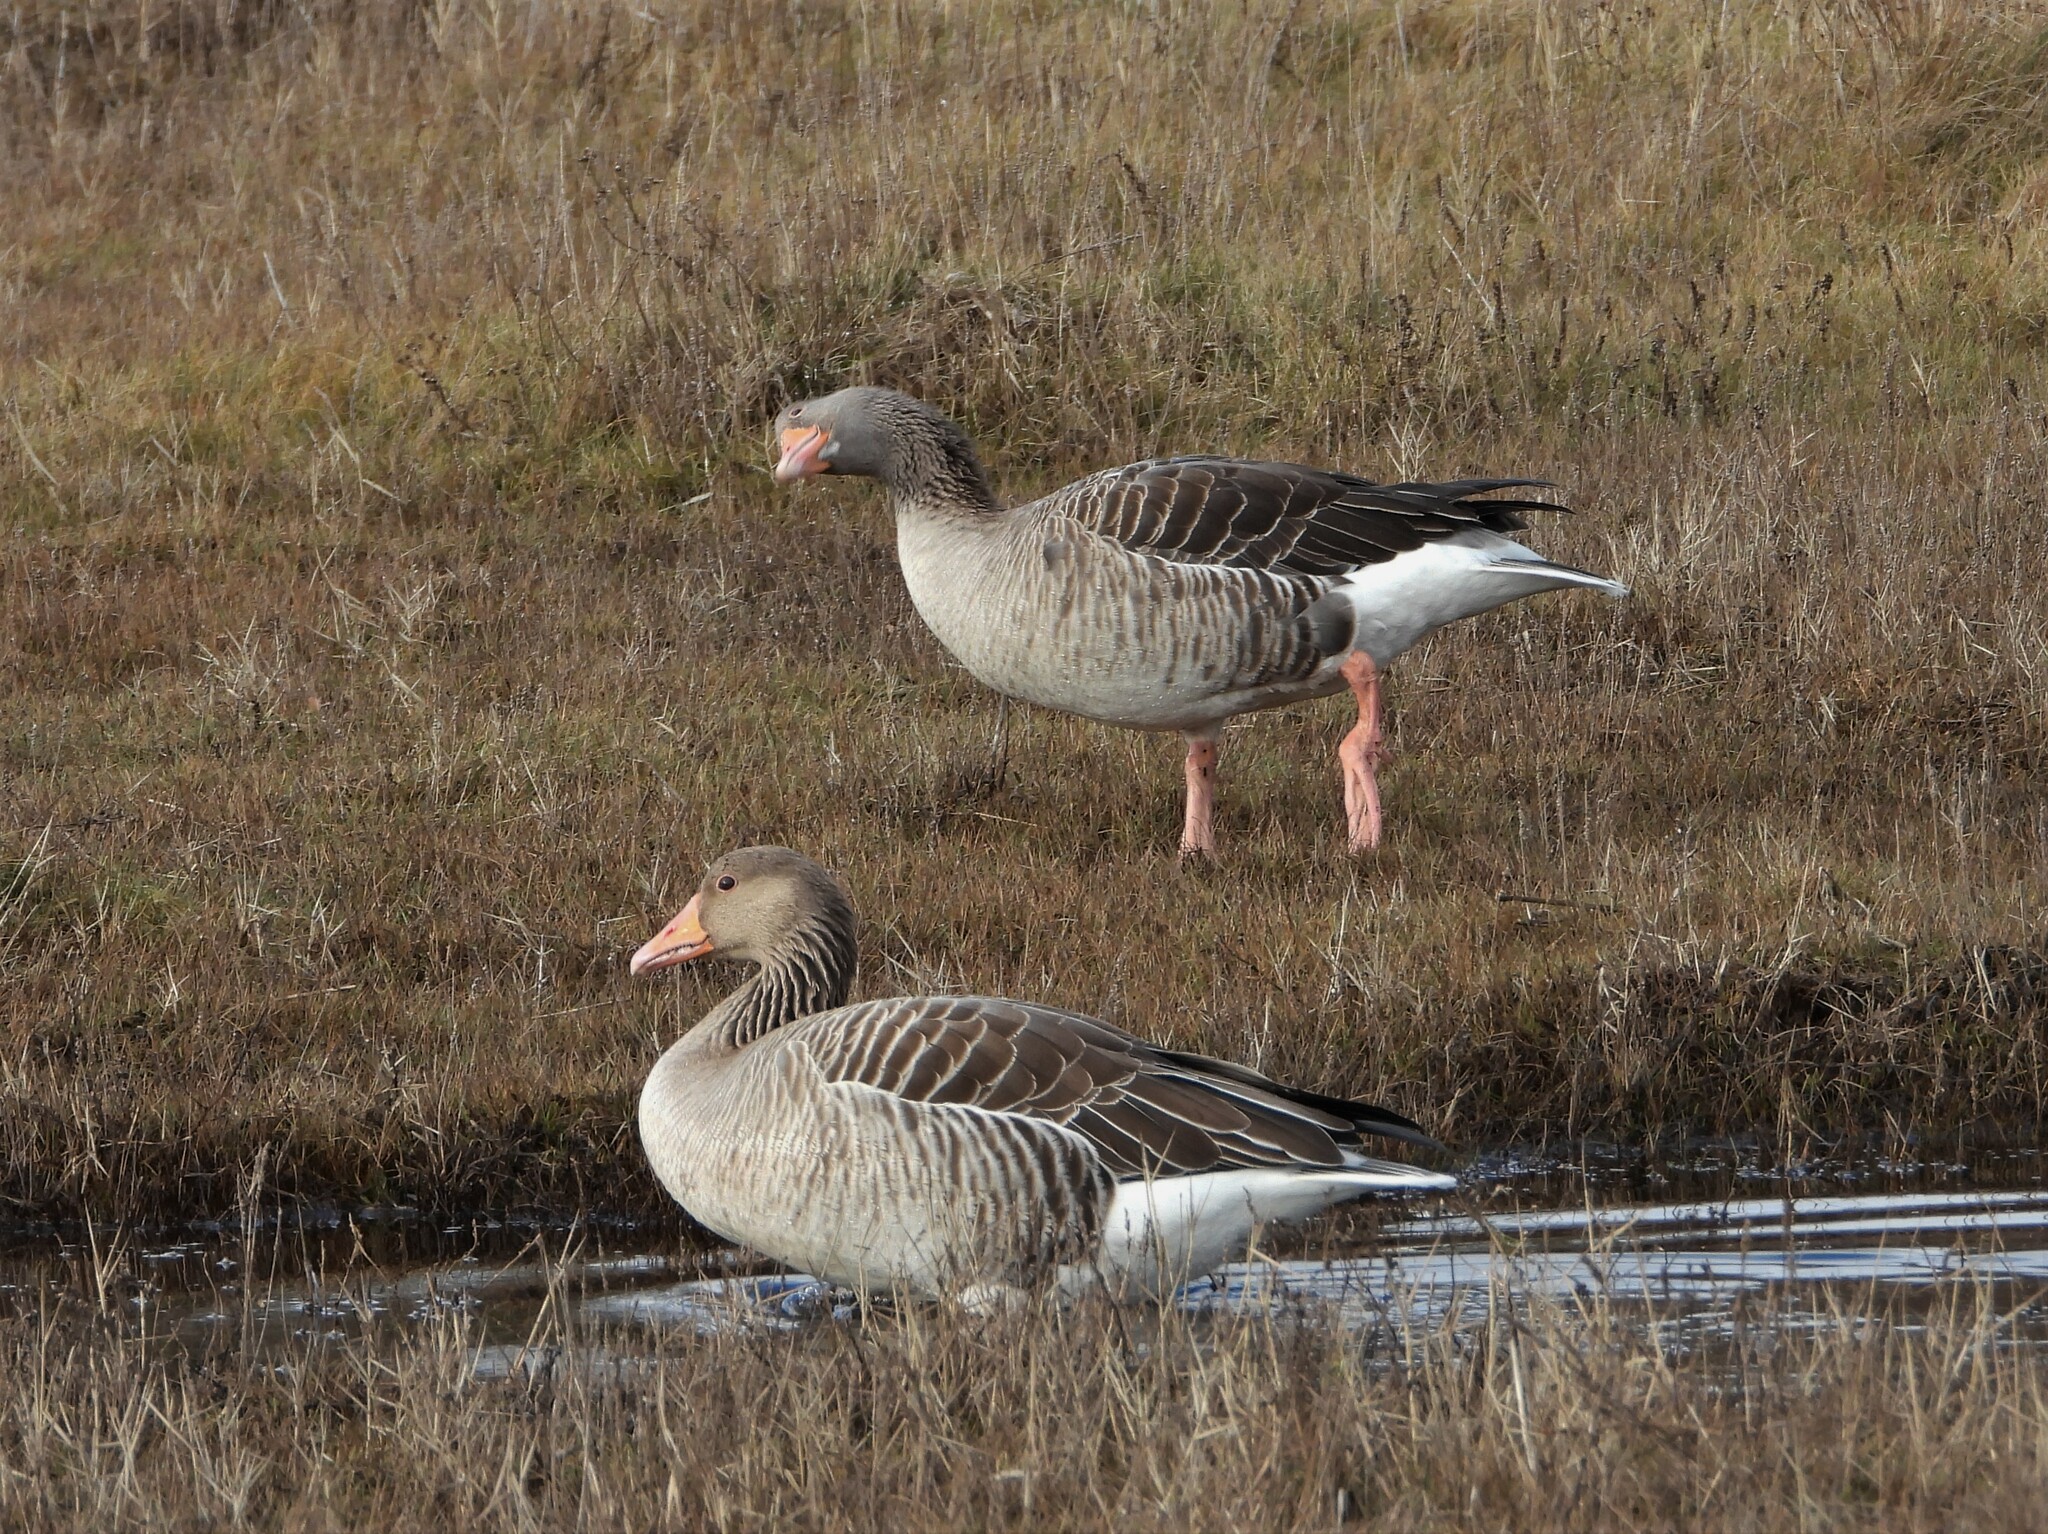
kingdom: Animalia
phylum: Chordata
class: Aves
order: Anseriformes
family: Anatidae
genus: Anser
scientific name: Anser anser
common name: Greylag goose
